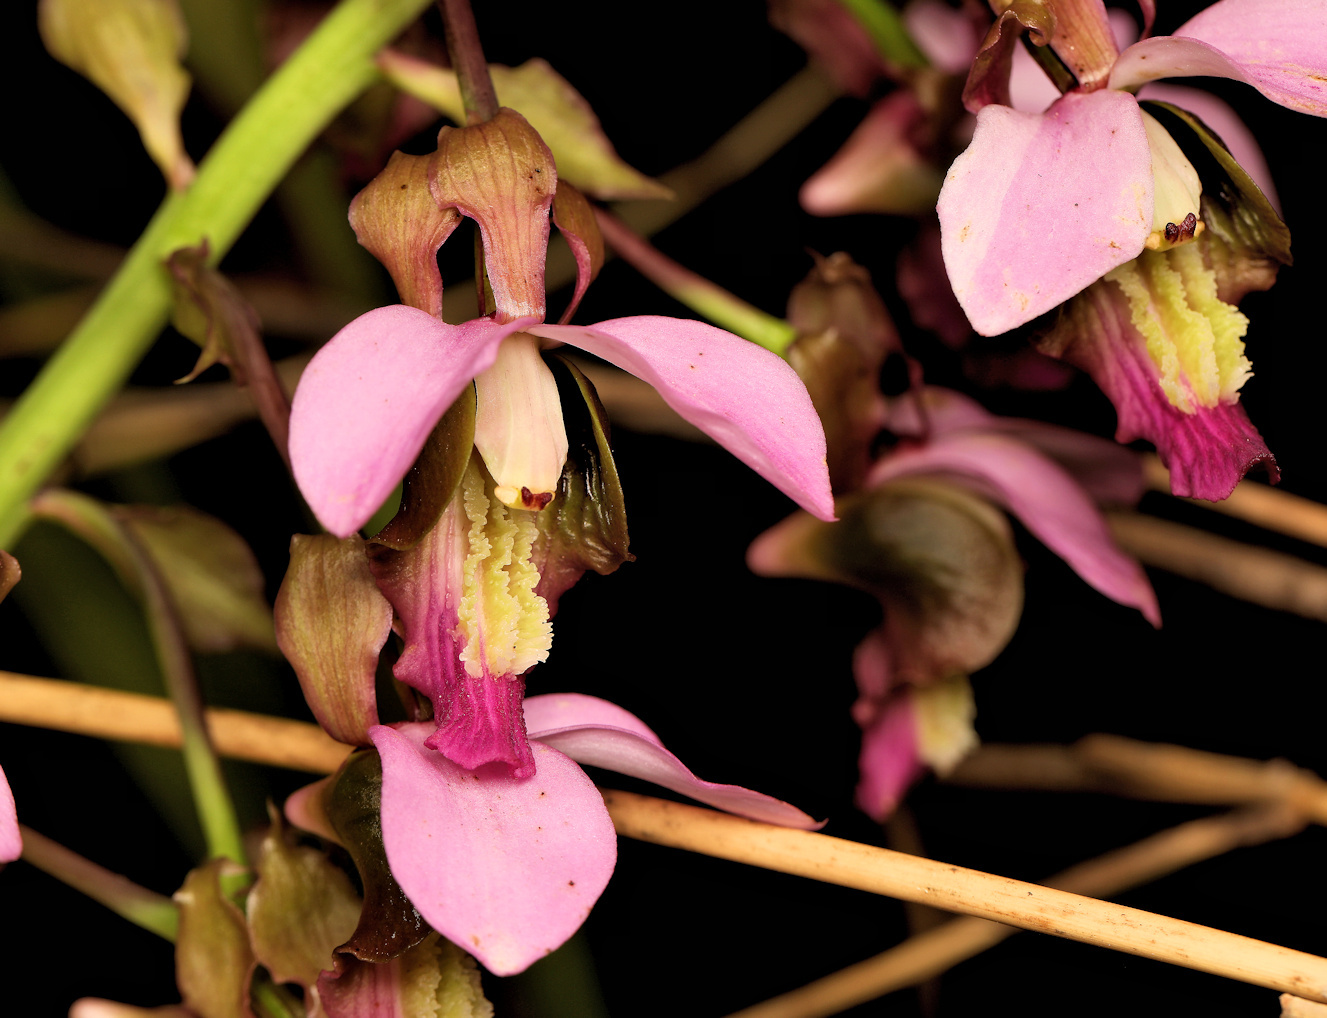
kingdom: Plantae
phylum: Tracheophyta
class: Liliopsida
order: Asparagales
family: Orchidaceae
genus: Eulophia
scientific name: Eulophia horsfallii
